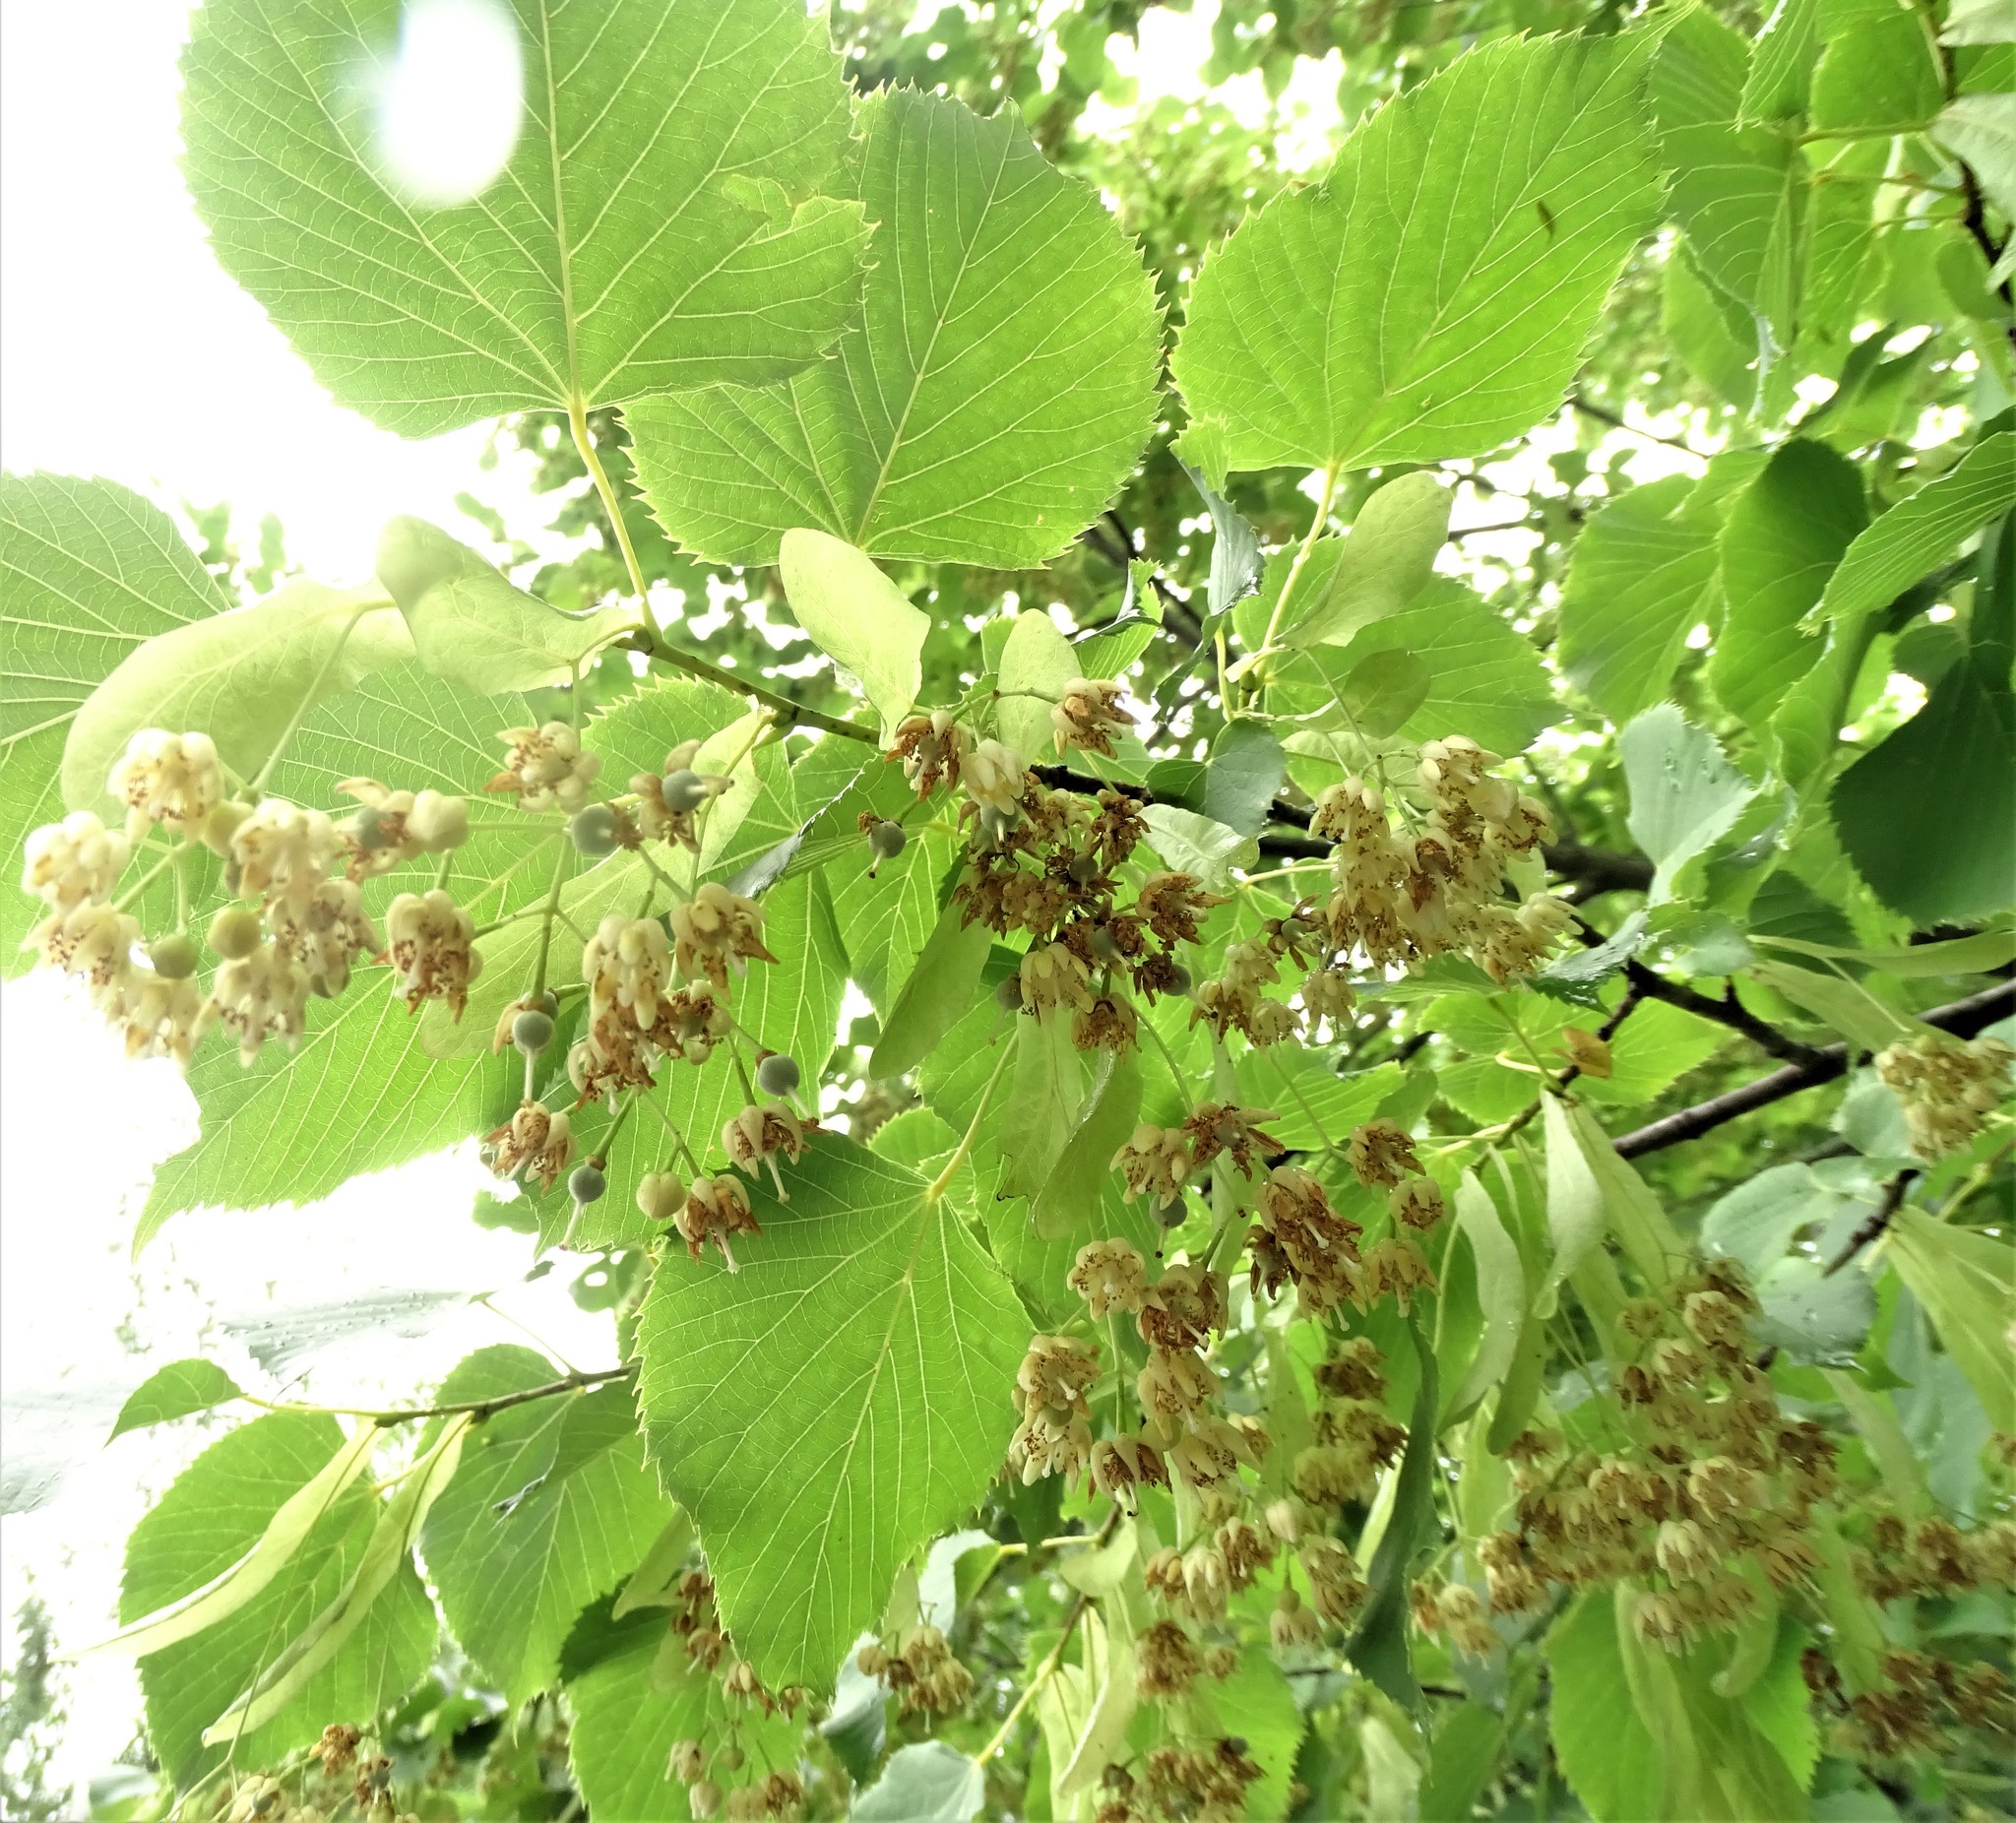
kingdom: Plantae
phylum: Tracheophyta
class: Magnoliopsida
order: Malvales
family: Malvaceae
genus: Tilia
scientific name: Tilia americana
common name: Basswood
